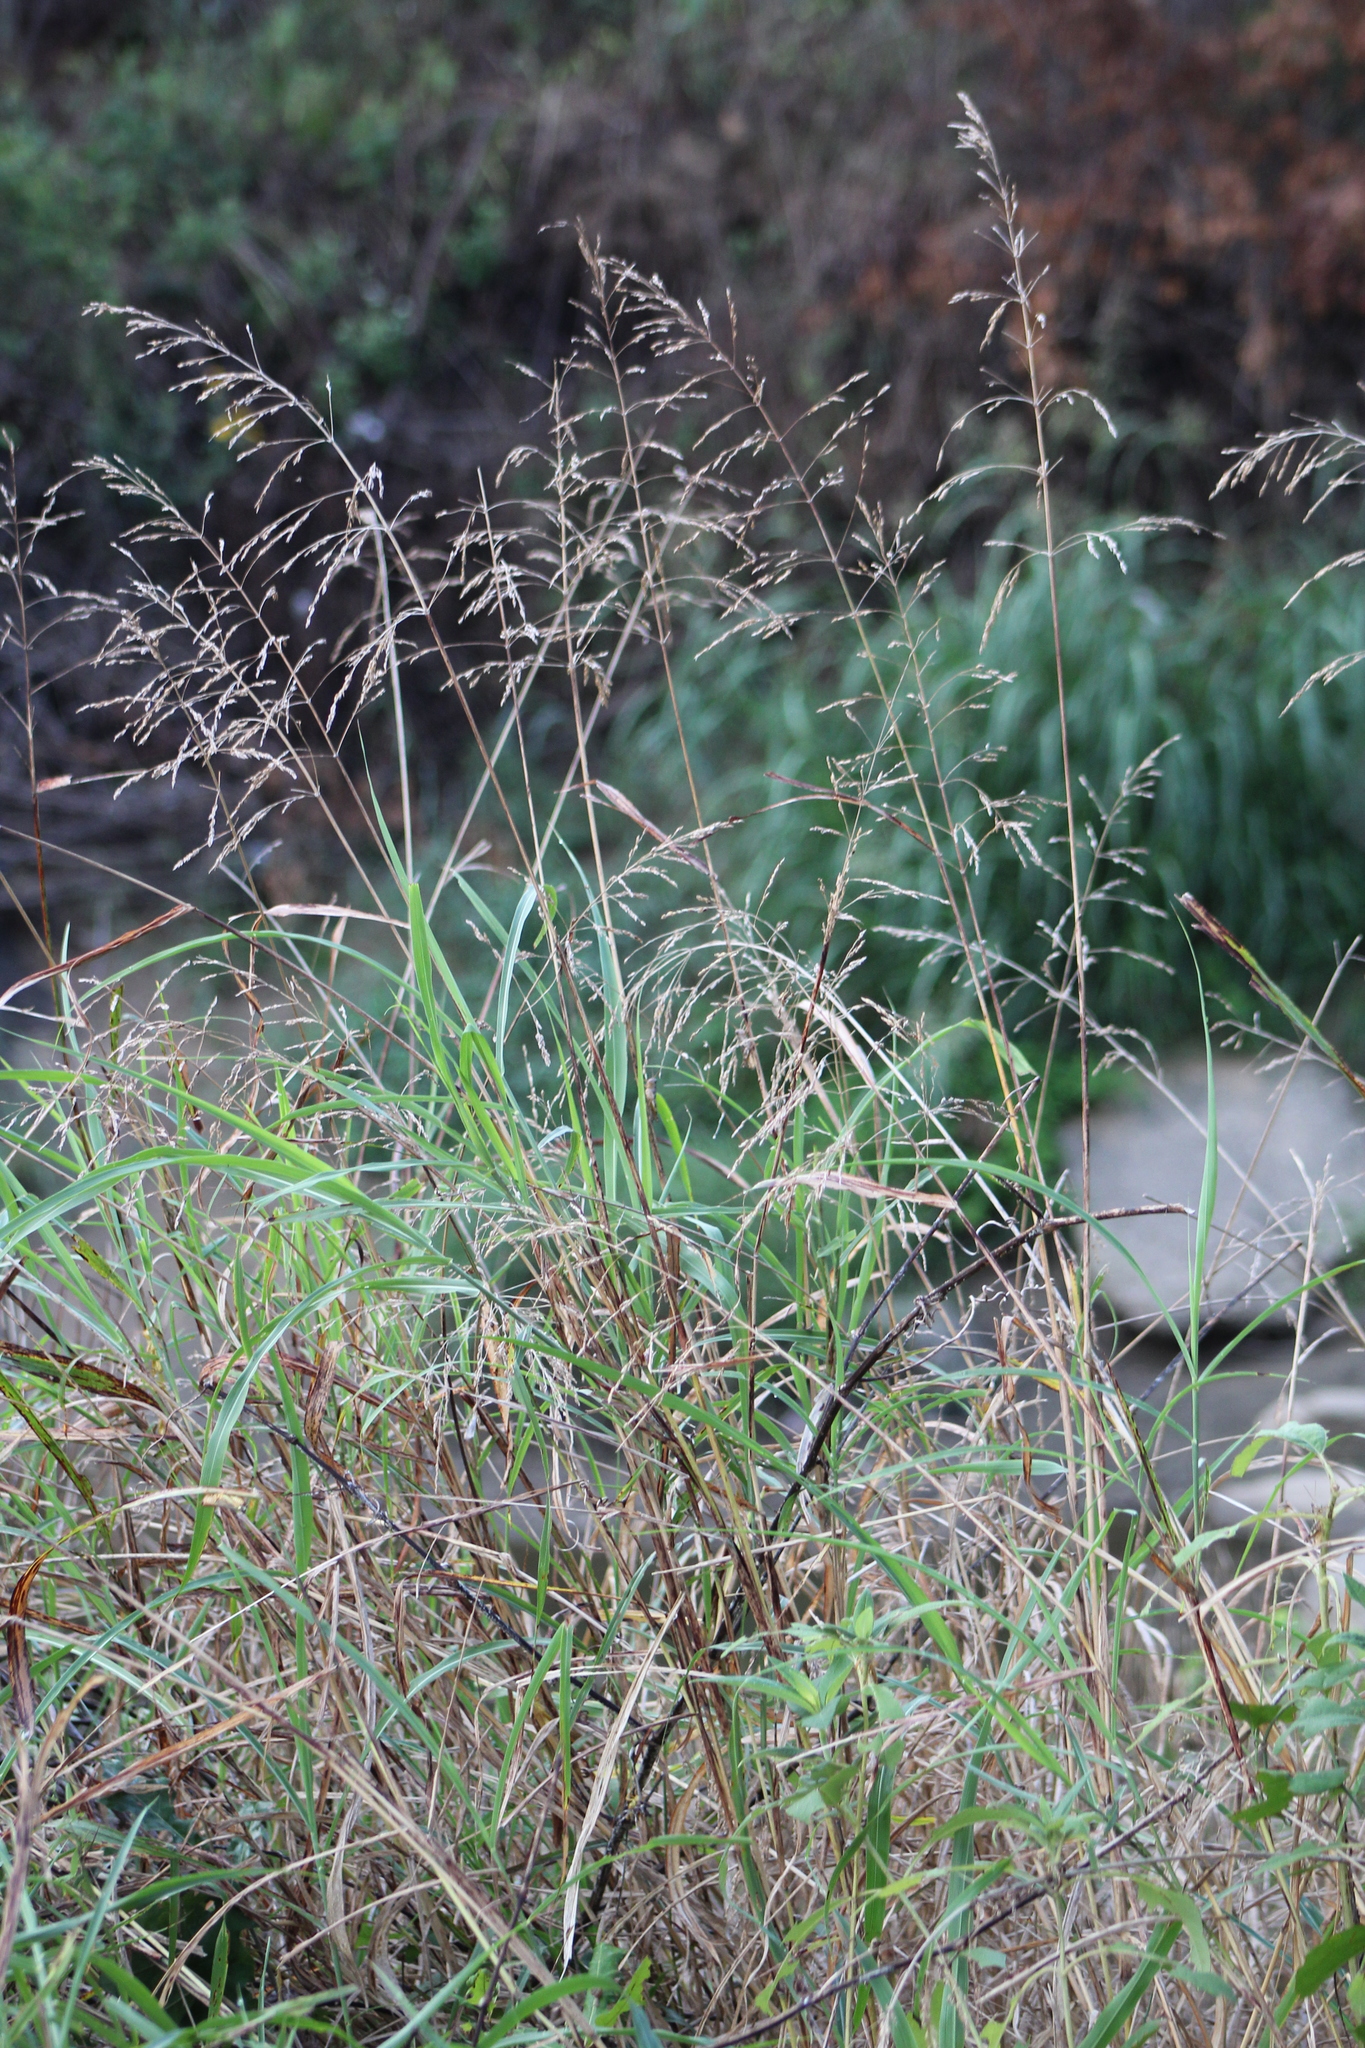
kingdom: Plantae
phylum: Tracheophyta
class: Liliopsida
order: Poales
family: Poaceae
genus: Tridens
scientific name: Tridens flavus
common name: Purpletop
